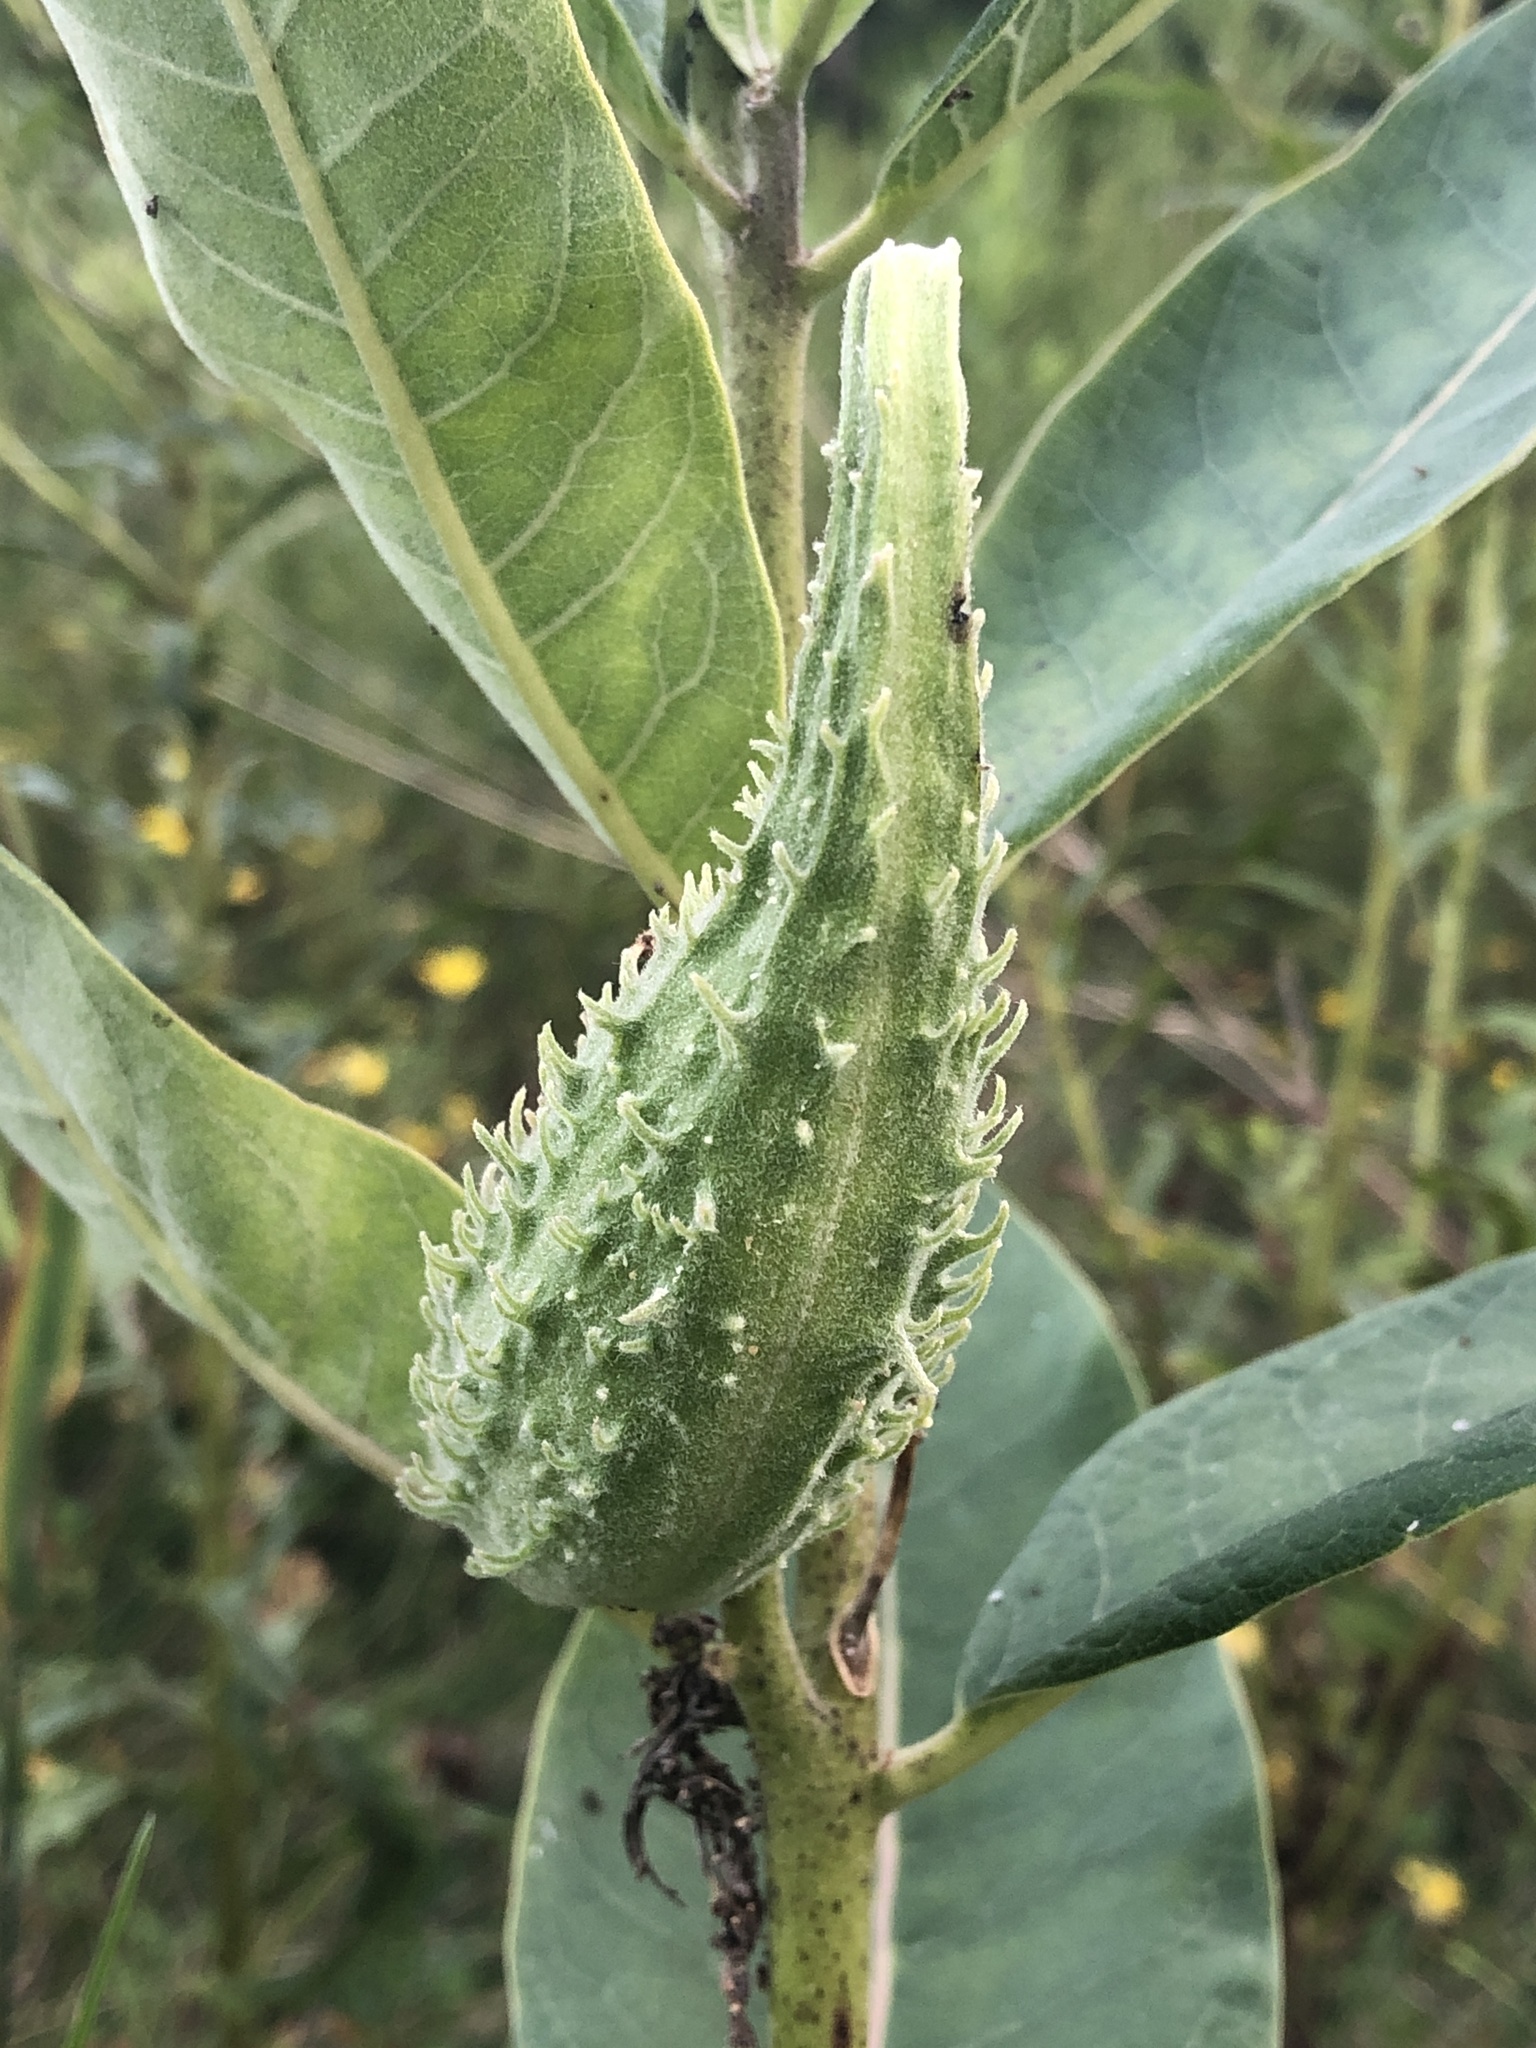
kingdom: Plantae
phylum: Tracheophyta
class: Magnoliopsida
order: Gentianales
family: Apocynaceae
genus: Asclepias
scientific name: Asclepias syriaca
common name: Common milkweed
